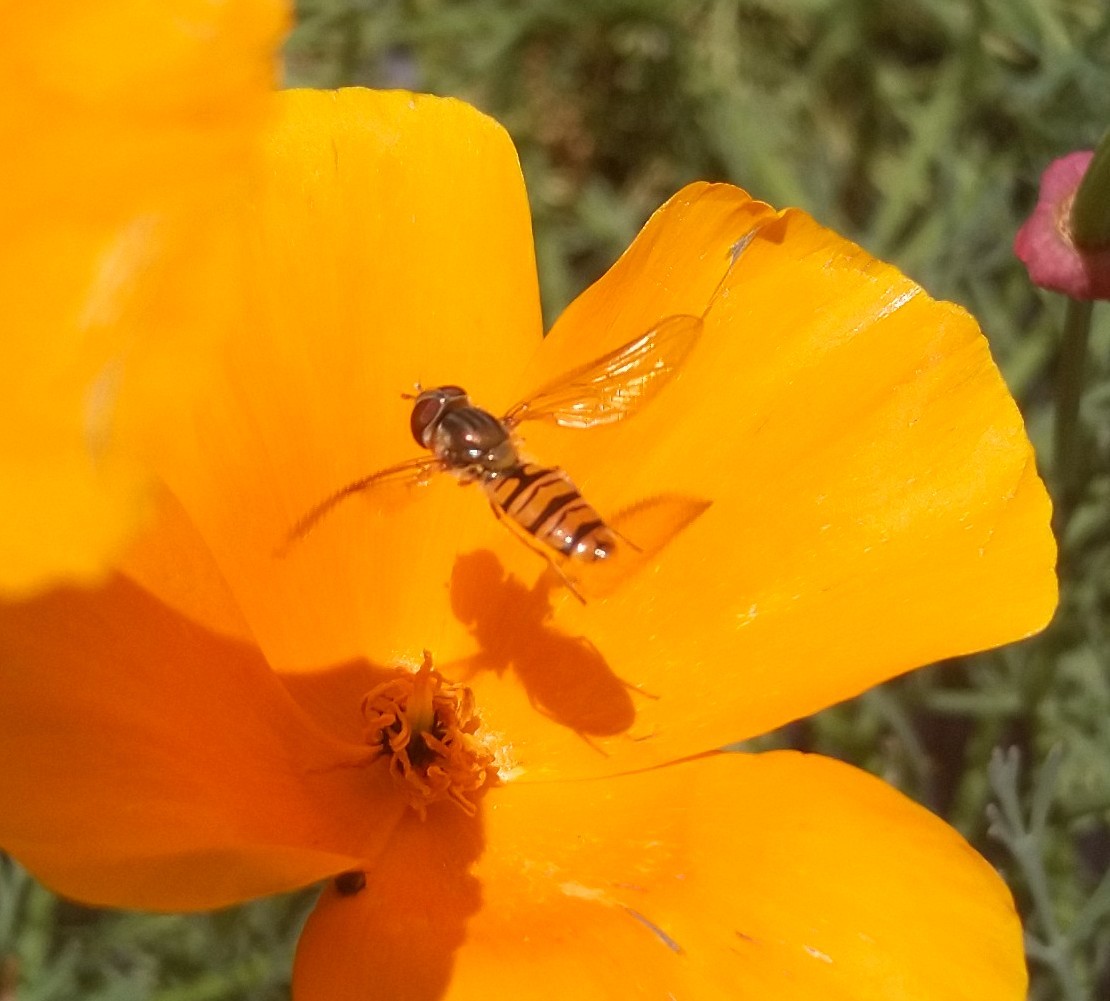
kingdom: Animalia
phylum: Arthropoda
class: Insecta
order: Diptera
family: Syrphidae
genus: Episyrphus
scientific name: Episyrphus balteatus
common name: Marmalade hoverfly
